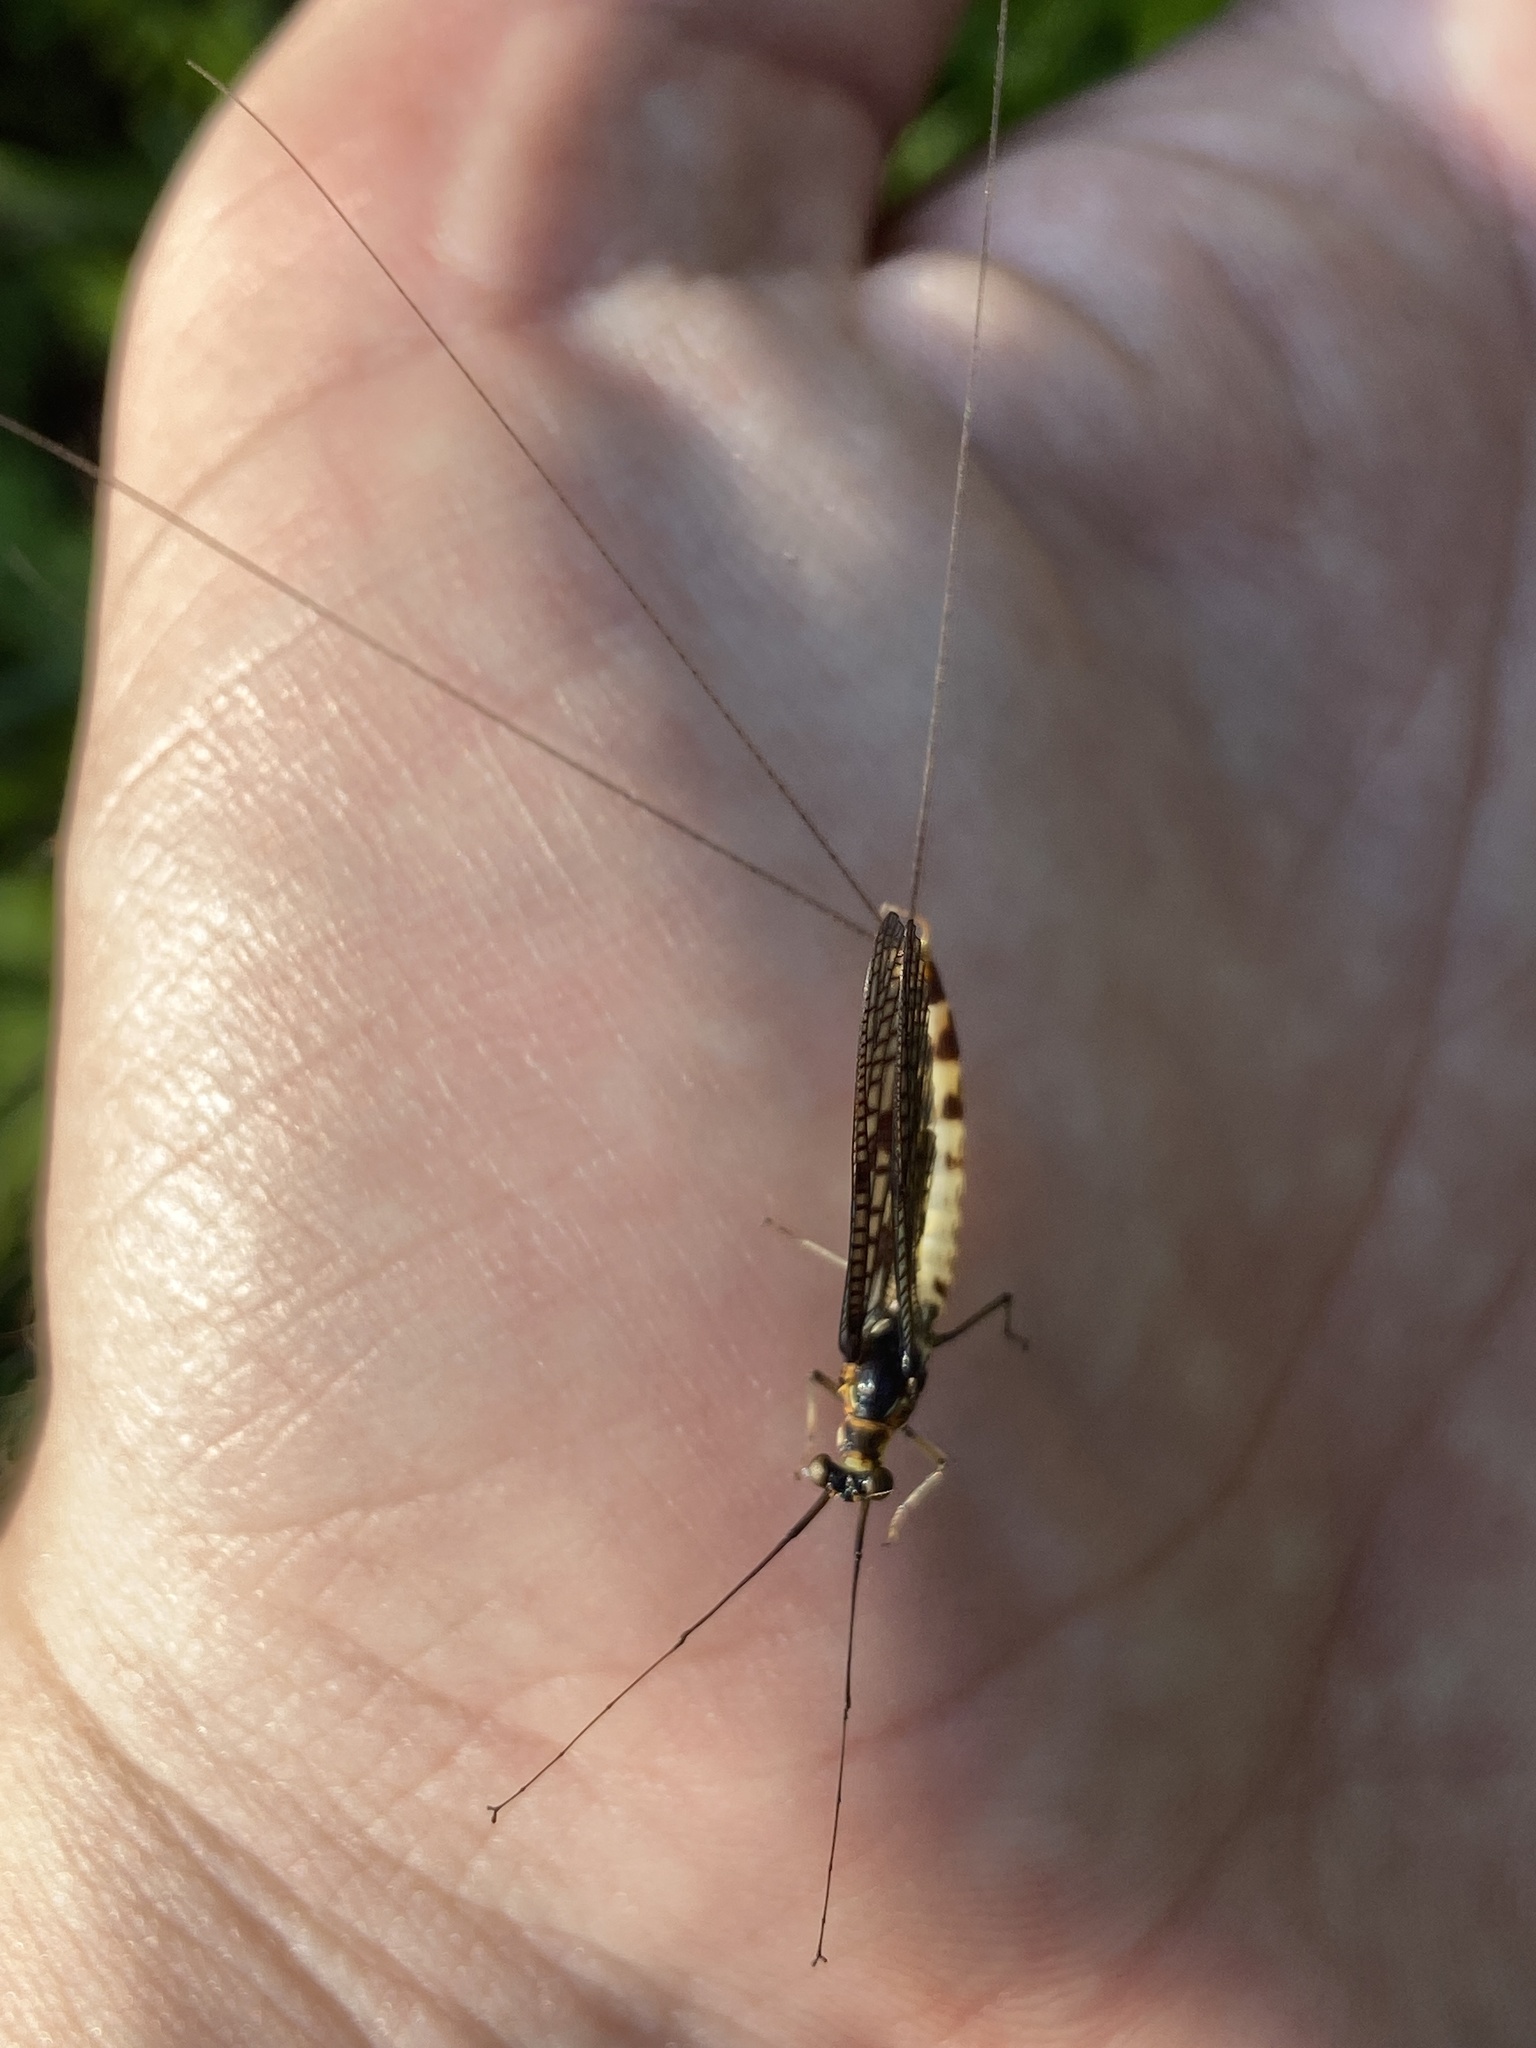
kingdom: Animalia
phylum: Arthropoda
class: Insecta
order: Ephemeroptera
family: Ephemeridae
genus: Ephemera
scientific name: Ephemera danica
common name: Green dun
